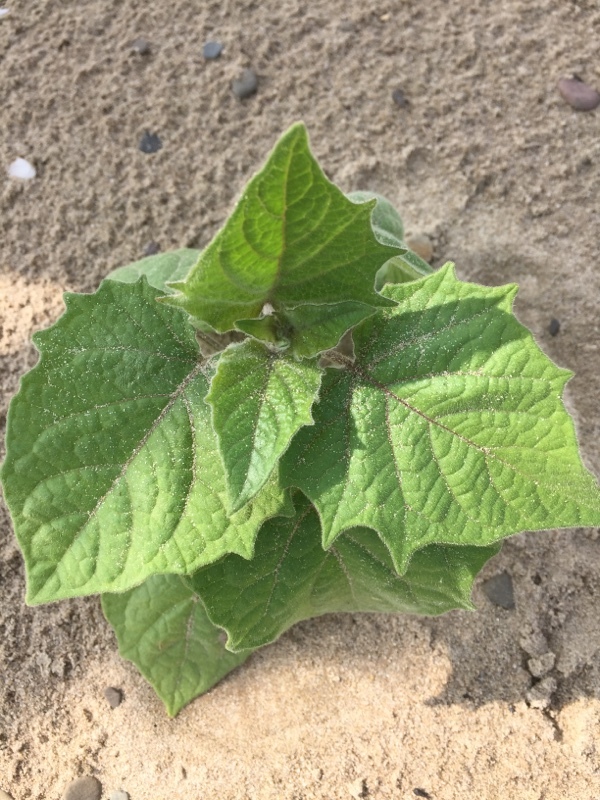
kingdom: Plantae
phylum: Tracheophyta
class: Magnoliopsida
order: Solanales
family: Solanaceae
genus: Physalis
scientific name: Physalis peruviana
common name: Cape-gooseberry
